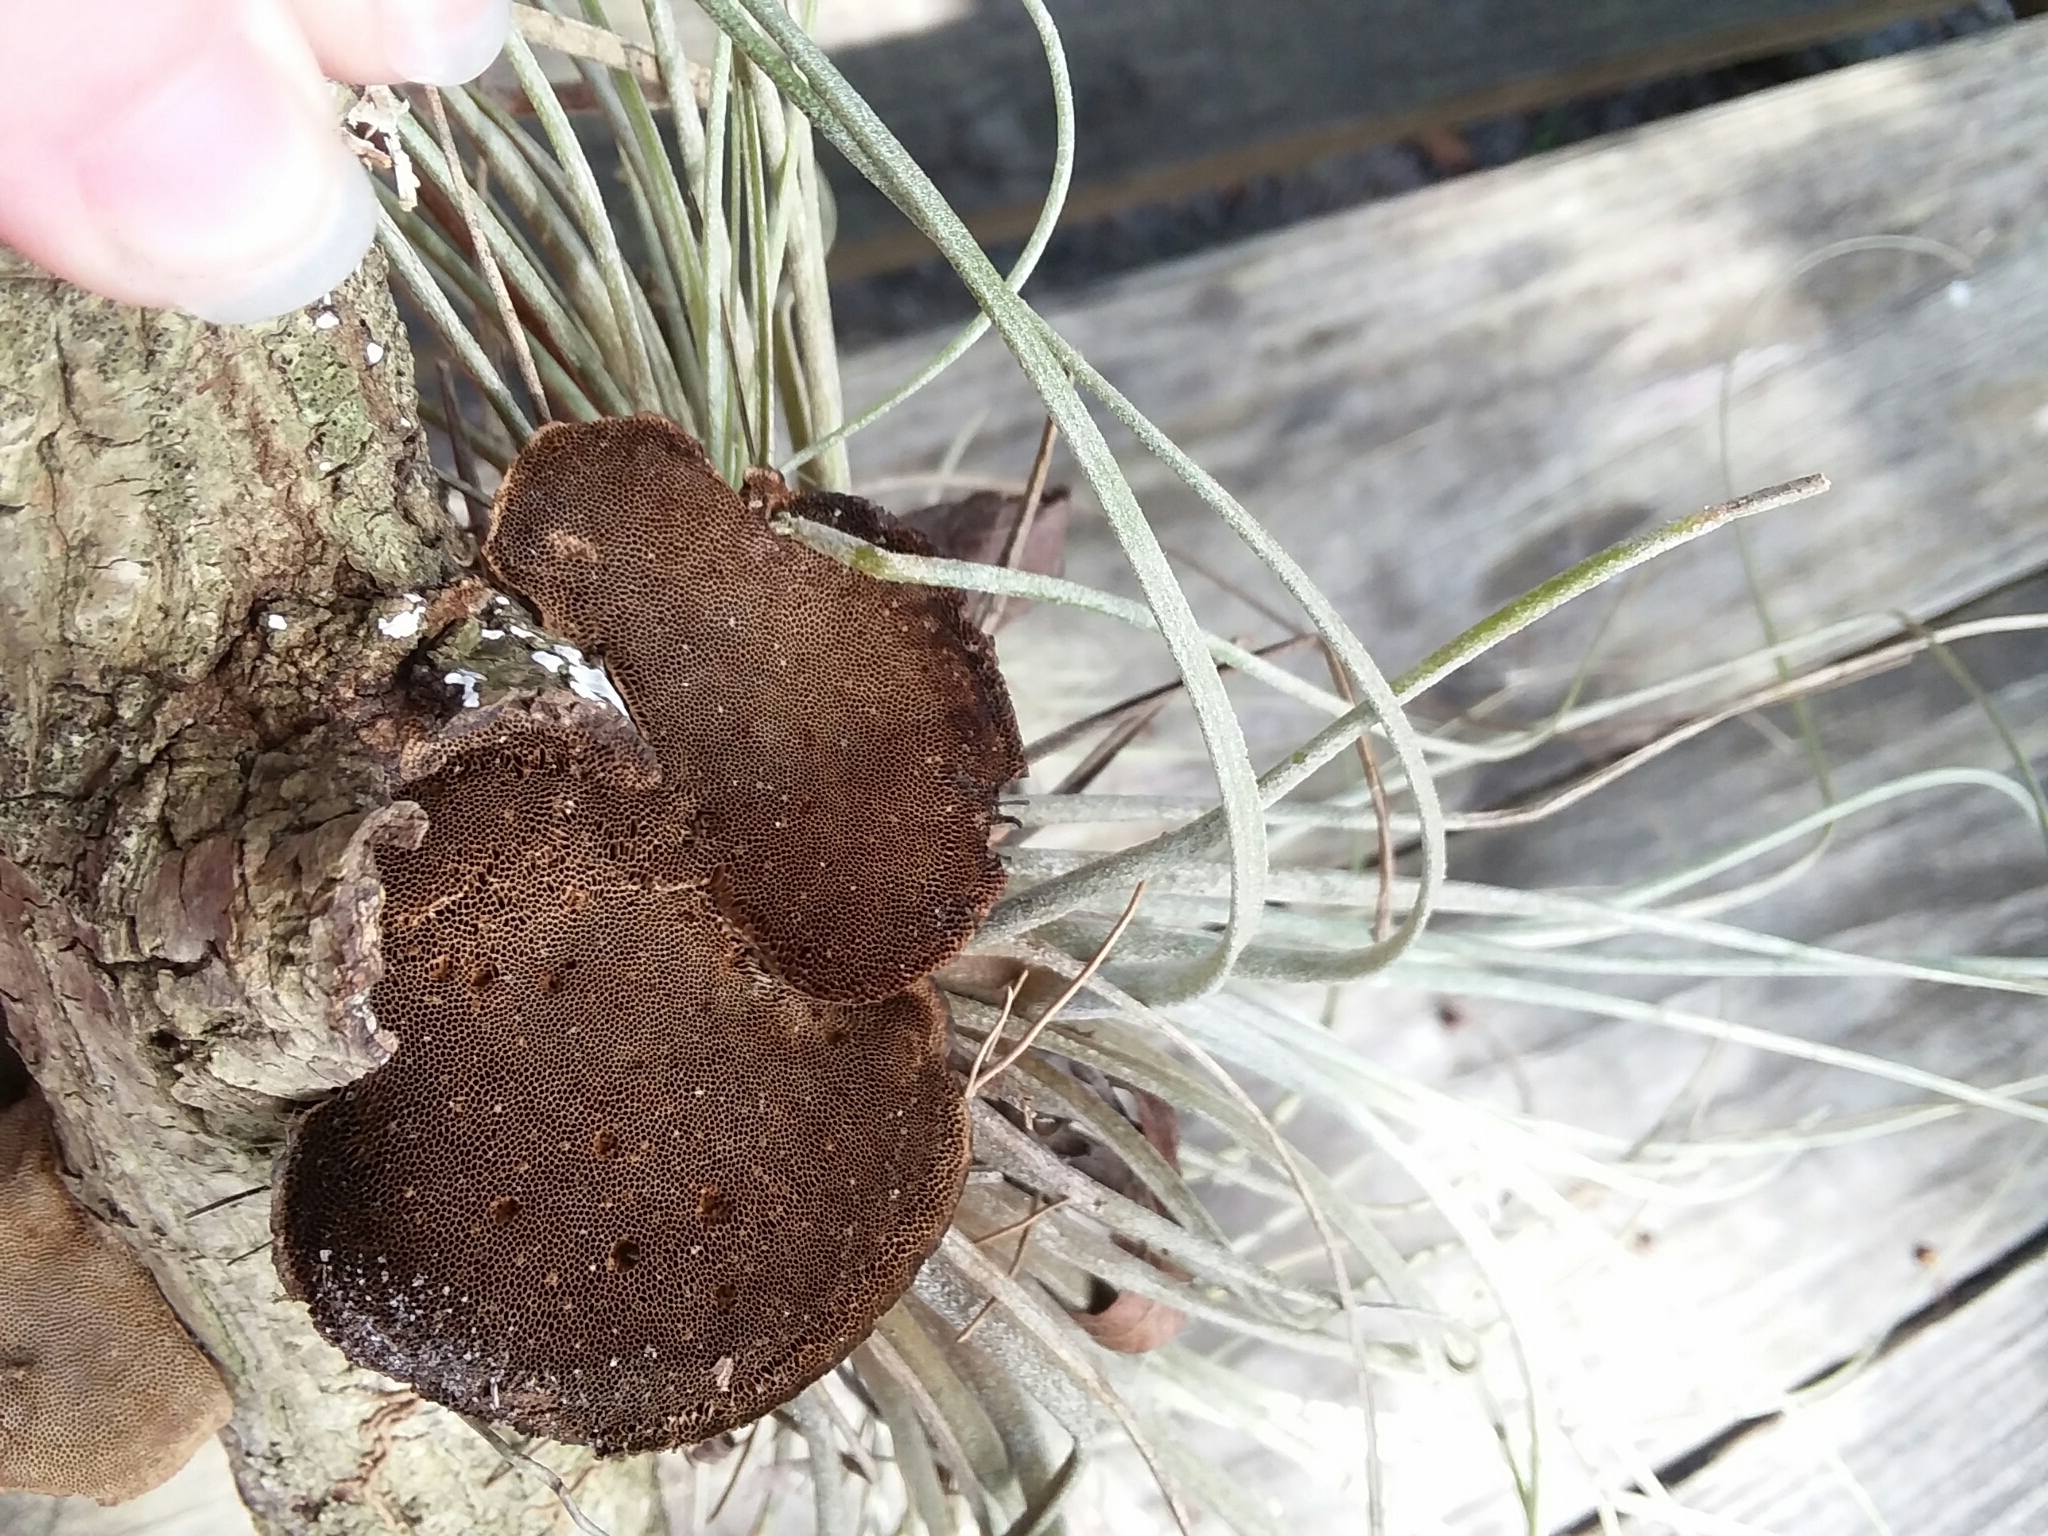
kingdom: Fungi
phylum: Basidiomycota
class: Agaricomycetes
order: Polyporales
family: Cerrenaceae
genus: Cerrena
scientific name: Cerrena hydnoides
